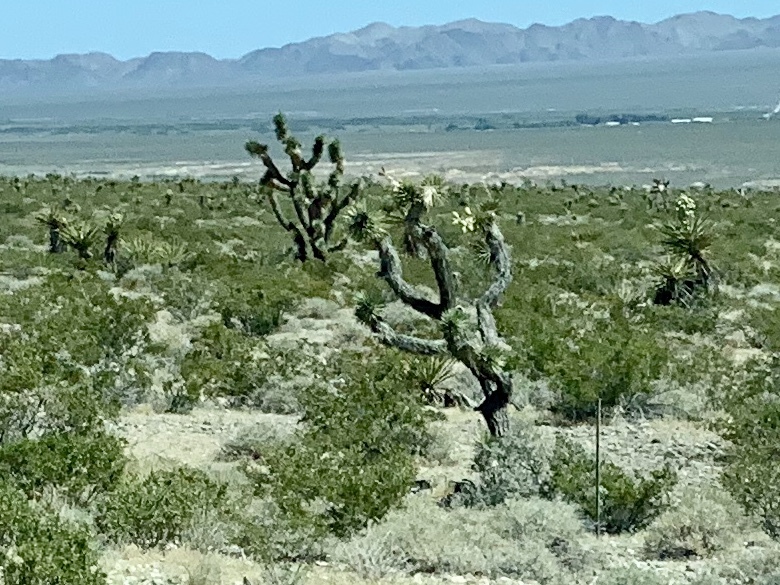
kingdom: Plantae
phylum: Tracheophyta
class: Liliopsida
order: Asparagales
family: Asparagaceae
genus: Yucca
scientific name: Yucca brevifolia
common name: Joshua tree
